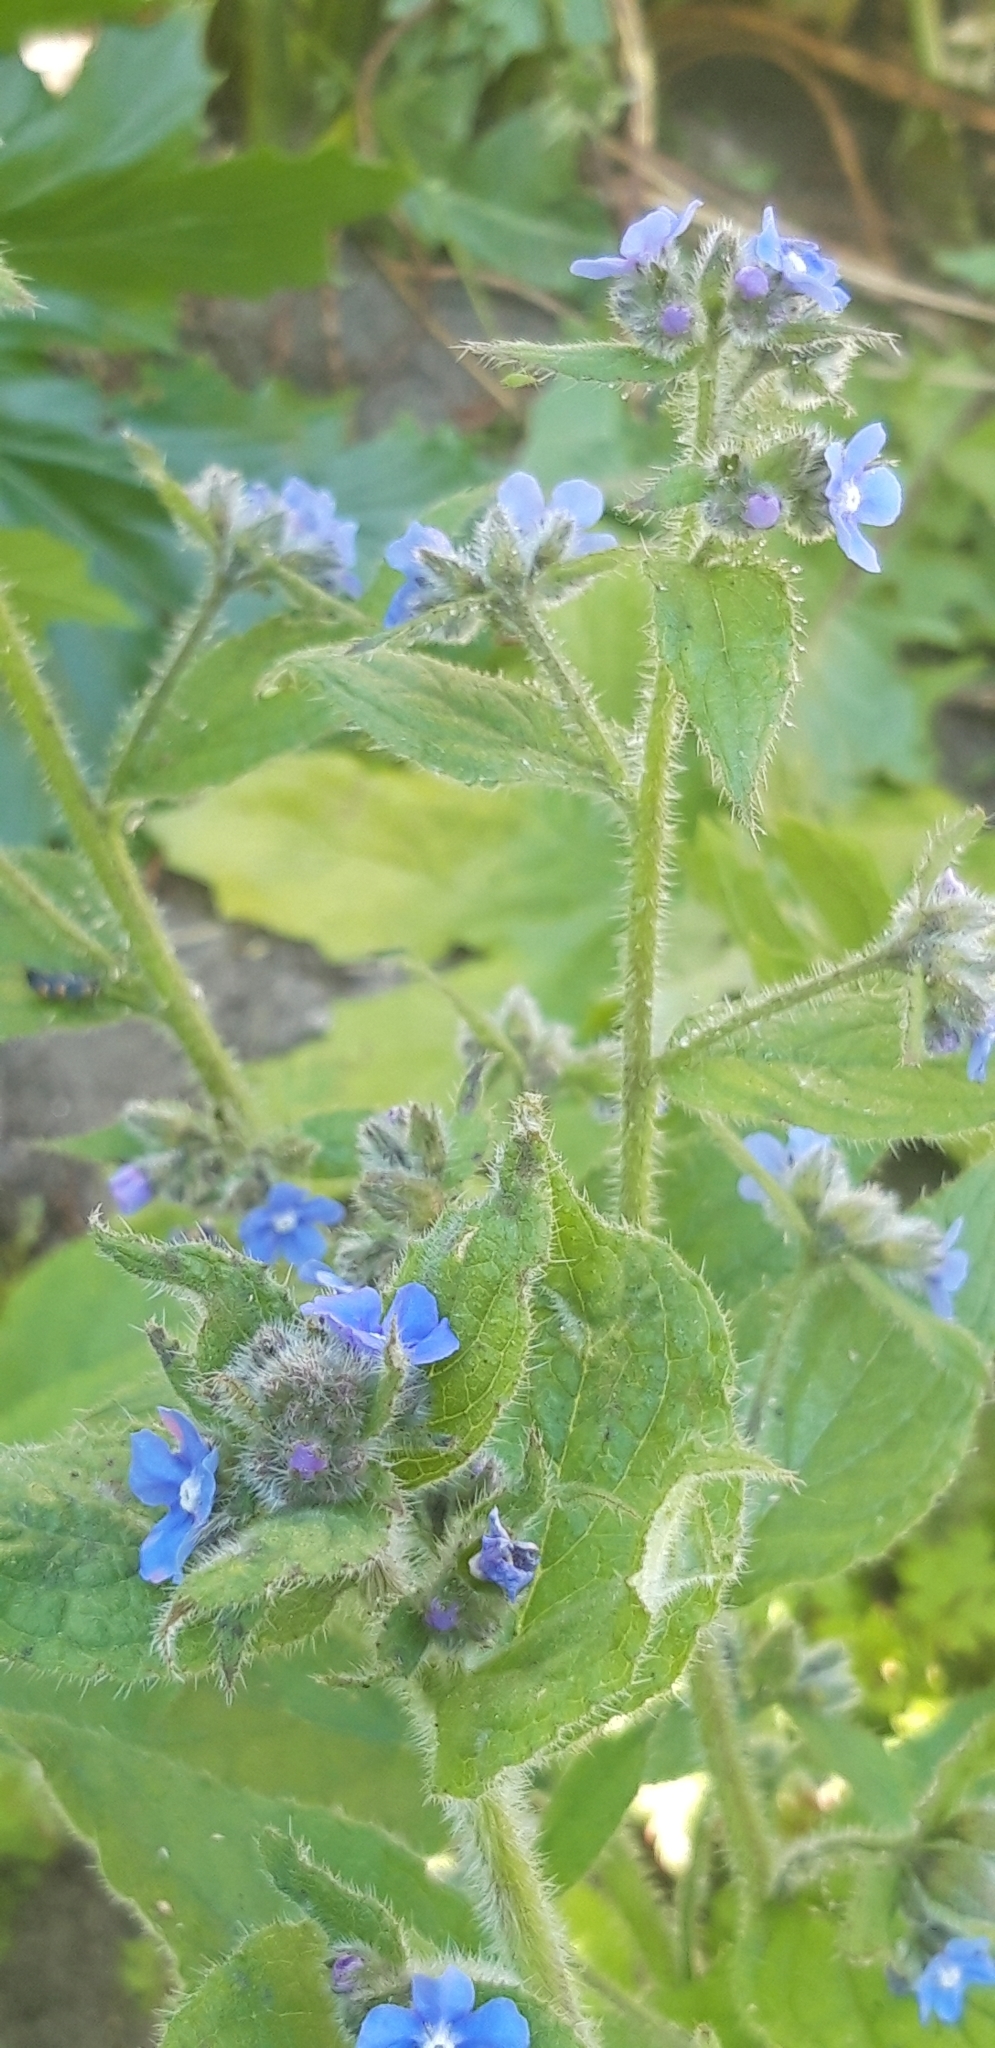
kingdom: Plantae
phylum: Tracheophyta
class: Magnoliopsida
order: Boraginales
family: Boraginaceae
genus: Pentaglottis
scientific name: Pentaglottis sempervirens
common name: Green alkanet
